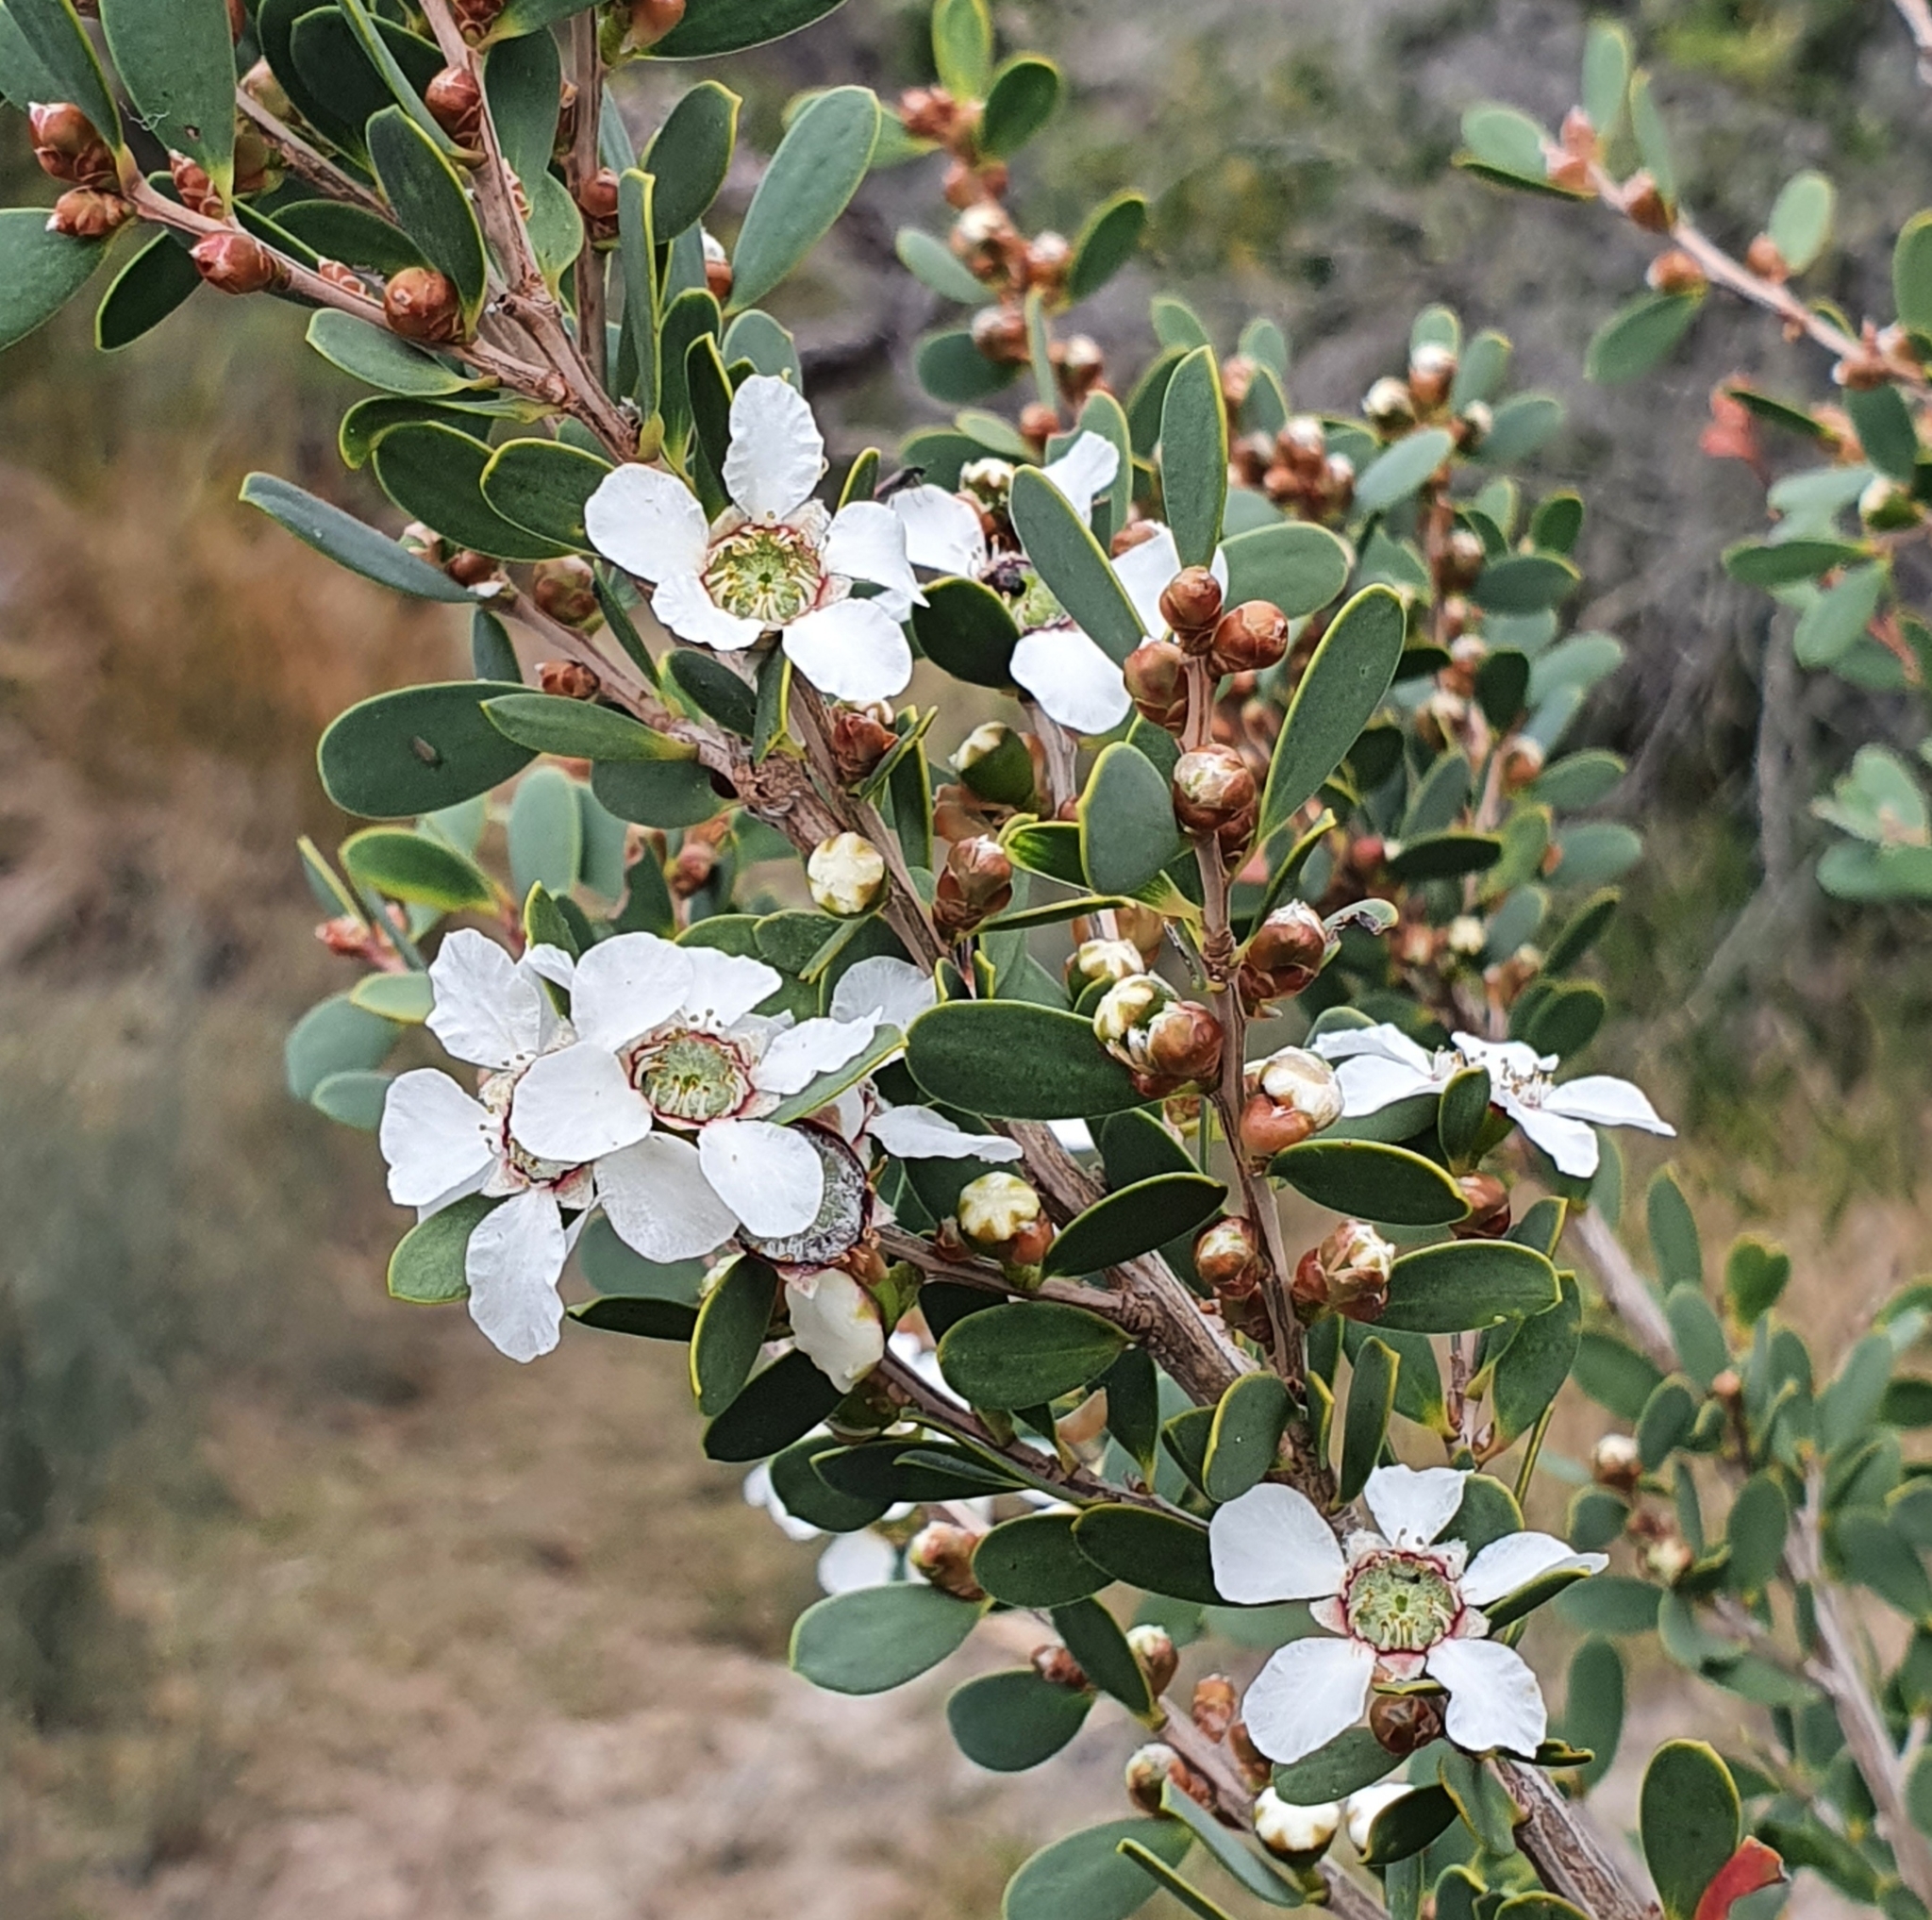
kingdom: Plantae
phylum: Tracheophyta
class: Magnoliopsida
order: Myrtales
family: Myrtaceae
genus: Leptospermum
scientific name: Leptospermum laevigatum
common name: Australian teatree
